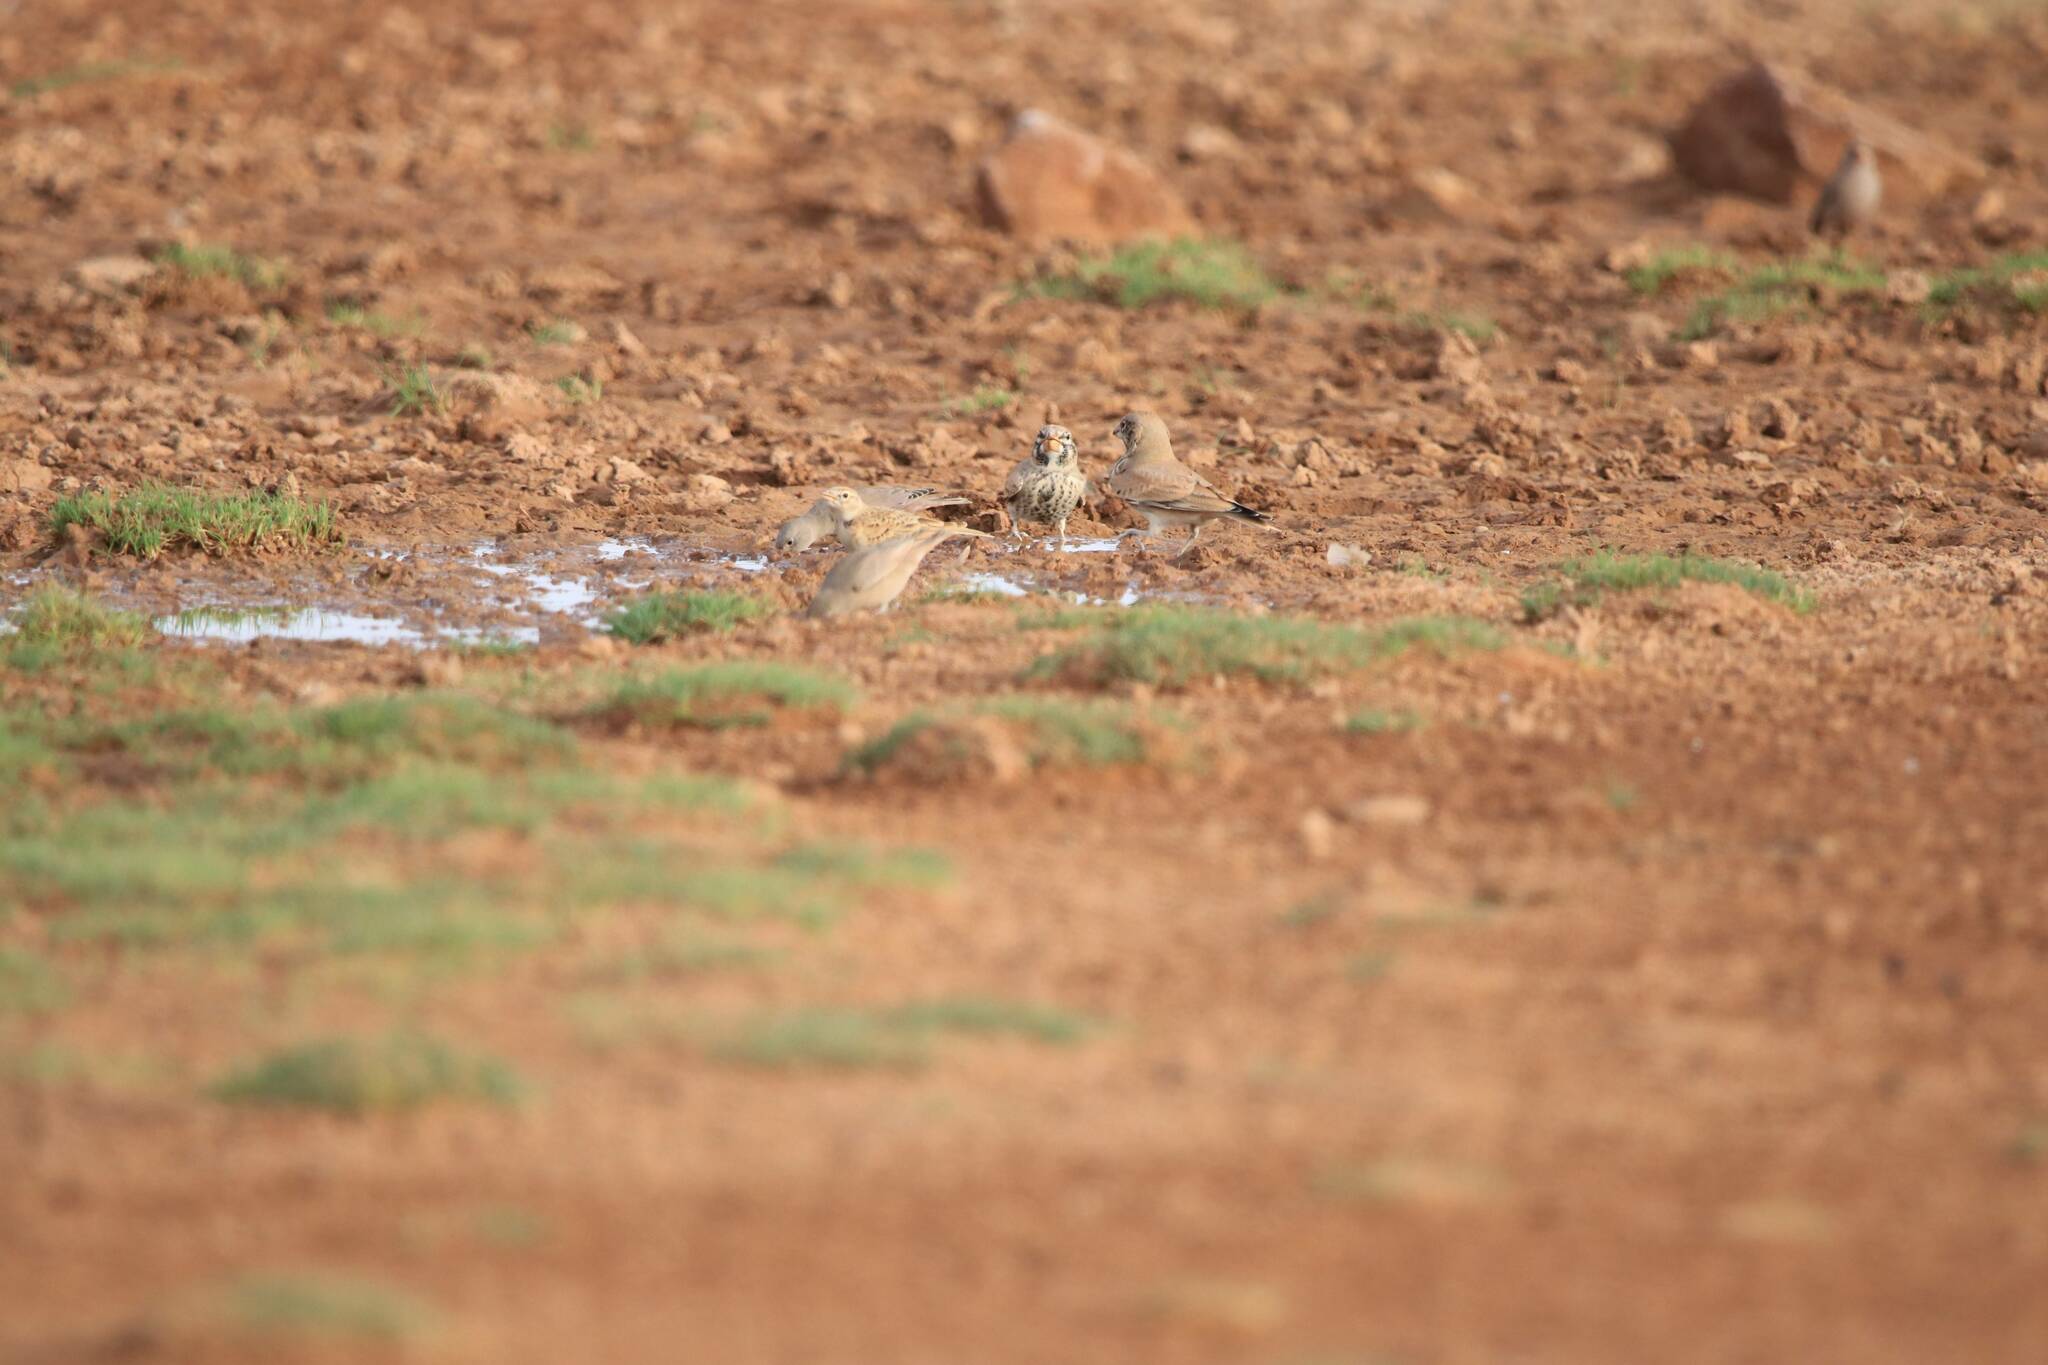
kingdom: Animalia
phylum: Chordata
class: Aves
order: Passeriformes
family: Alaudidae
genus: Calandrella
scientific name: Calandrella brachydactyla
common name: Greater short-toed lark
